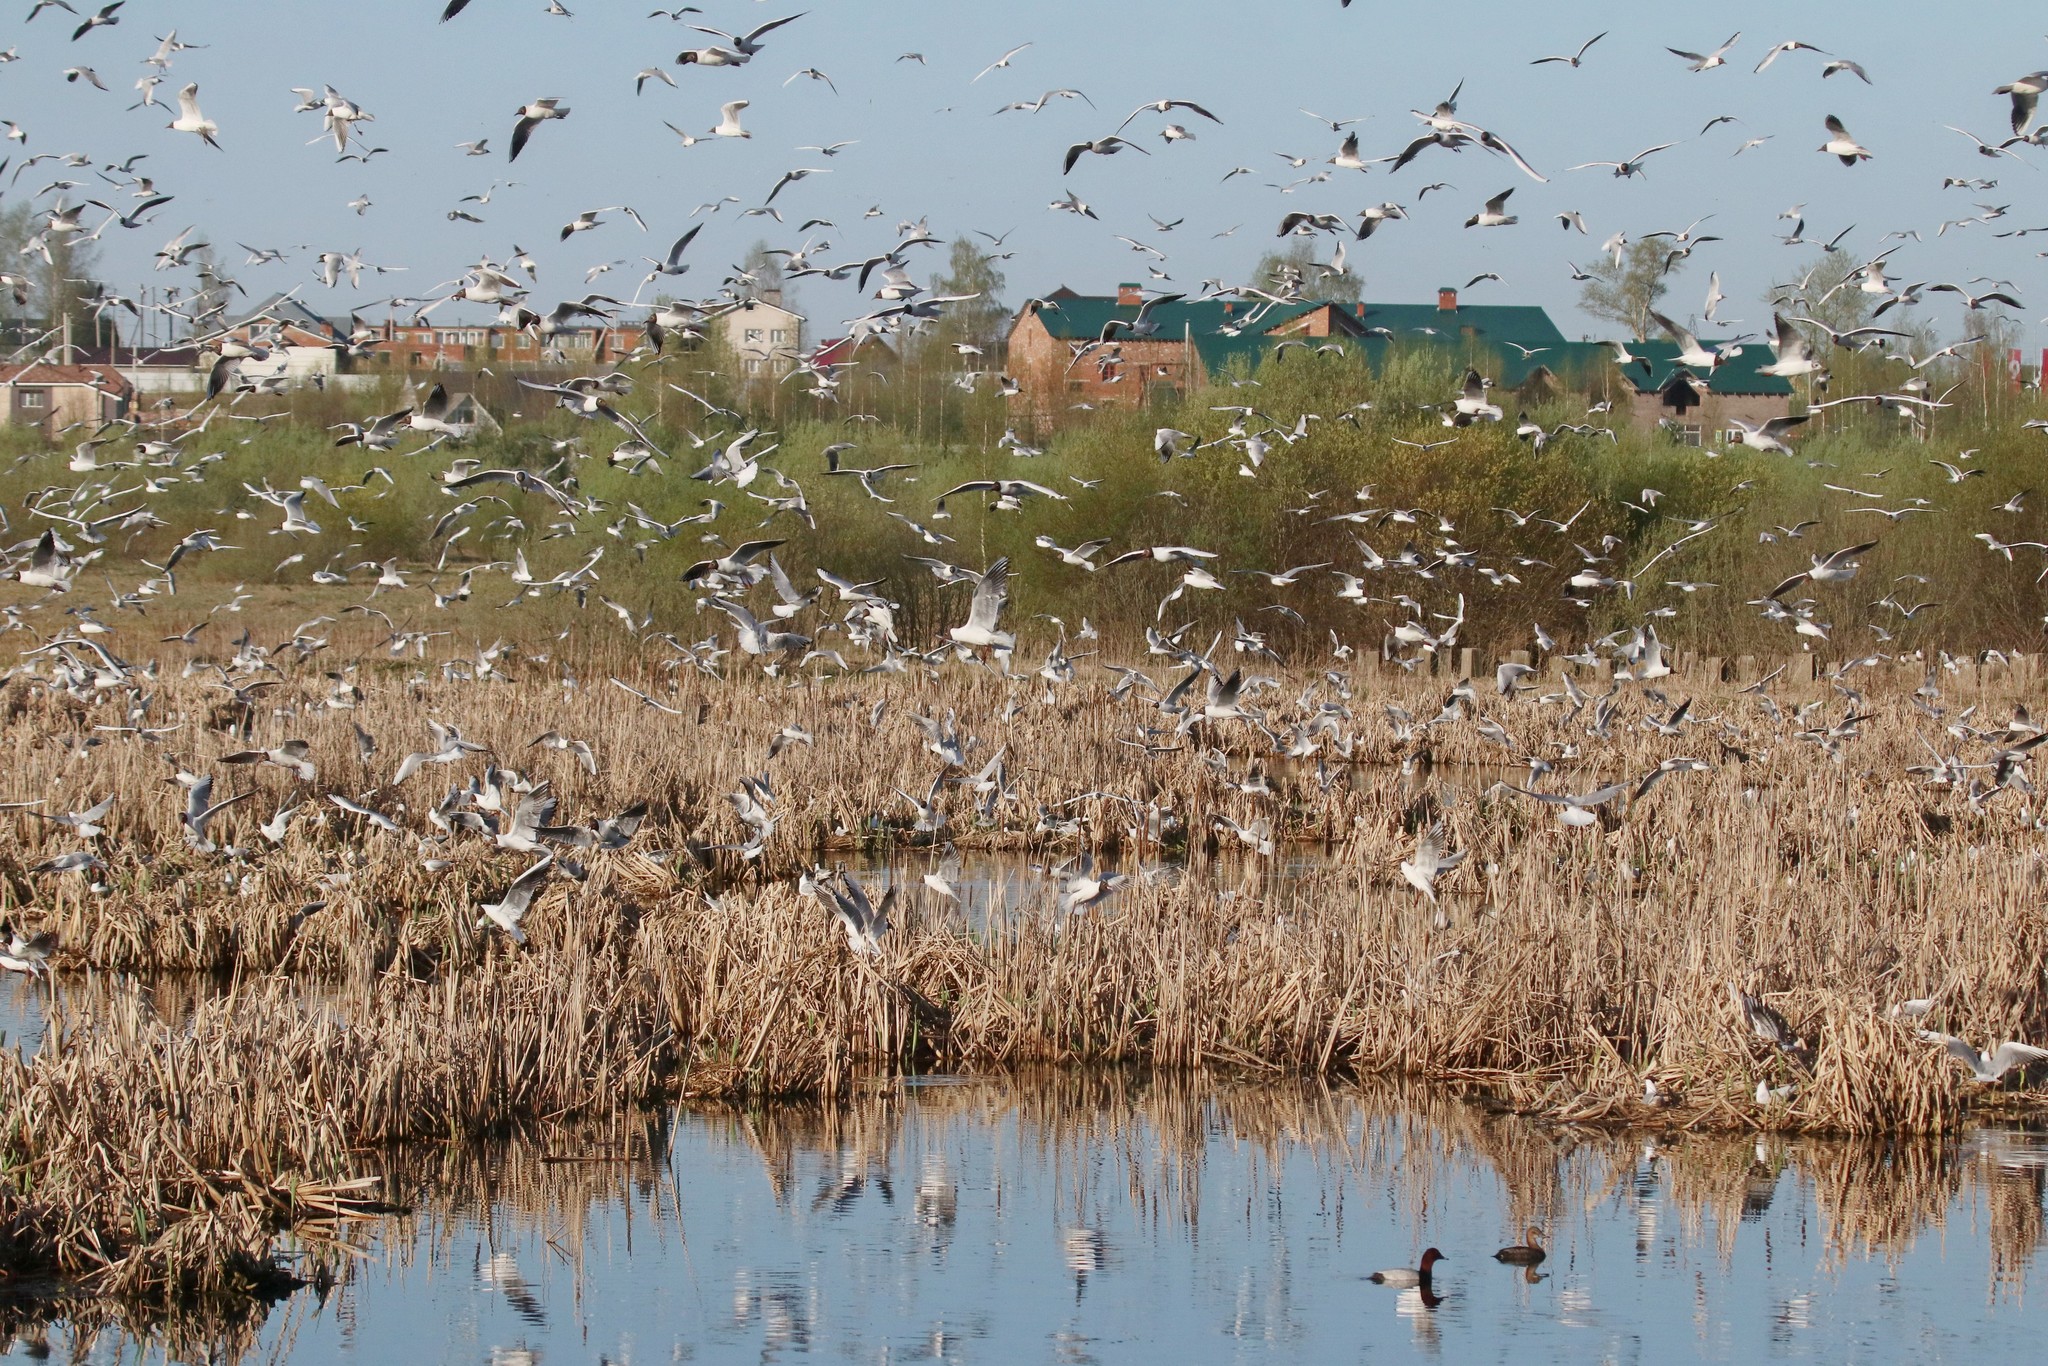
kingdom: Animalia
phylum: Chordata
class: Aves
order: Charadriiformes
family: Laridae
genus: Chroicocephalus
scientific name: Chroicocephalus ridibundus
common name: Black-headed gull
